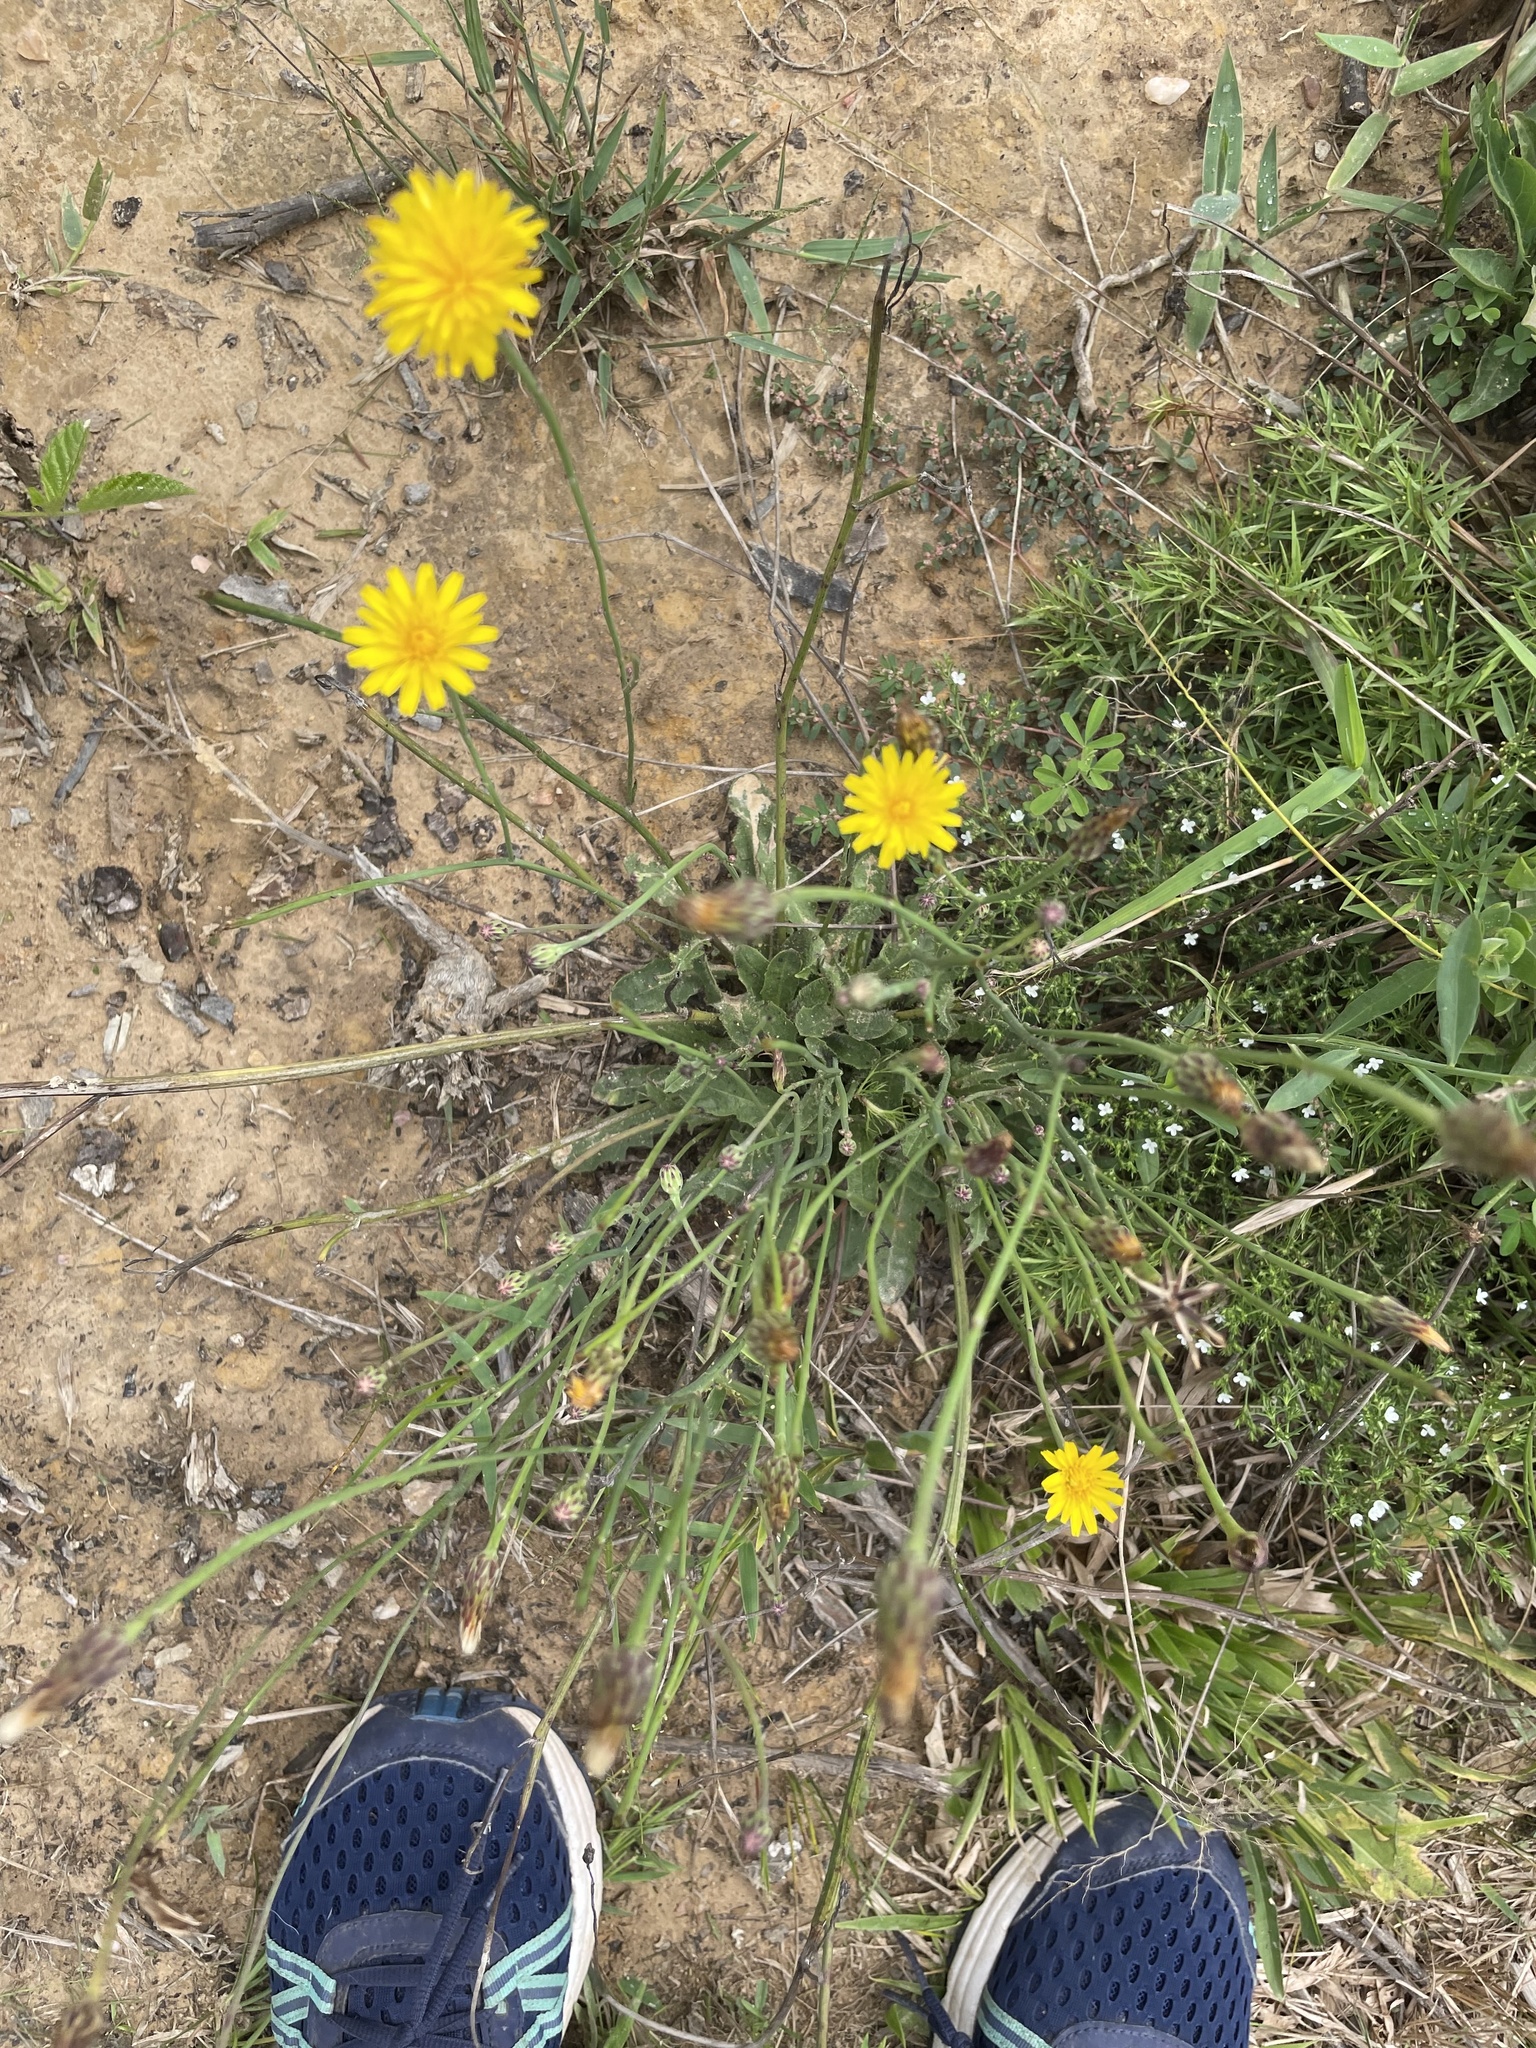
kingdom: Plantae
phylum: Tracheophyta
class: Magnoliopsida
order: Asterales
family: Asteraceae
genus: Hypochaeris
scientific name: Hypochaeris radicata
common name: Flatweed
